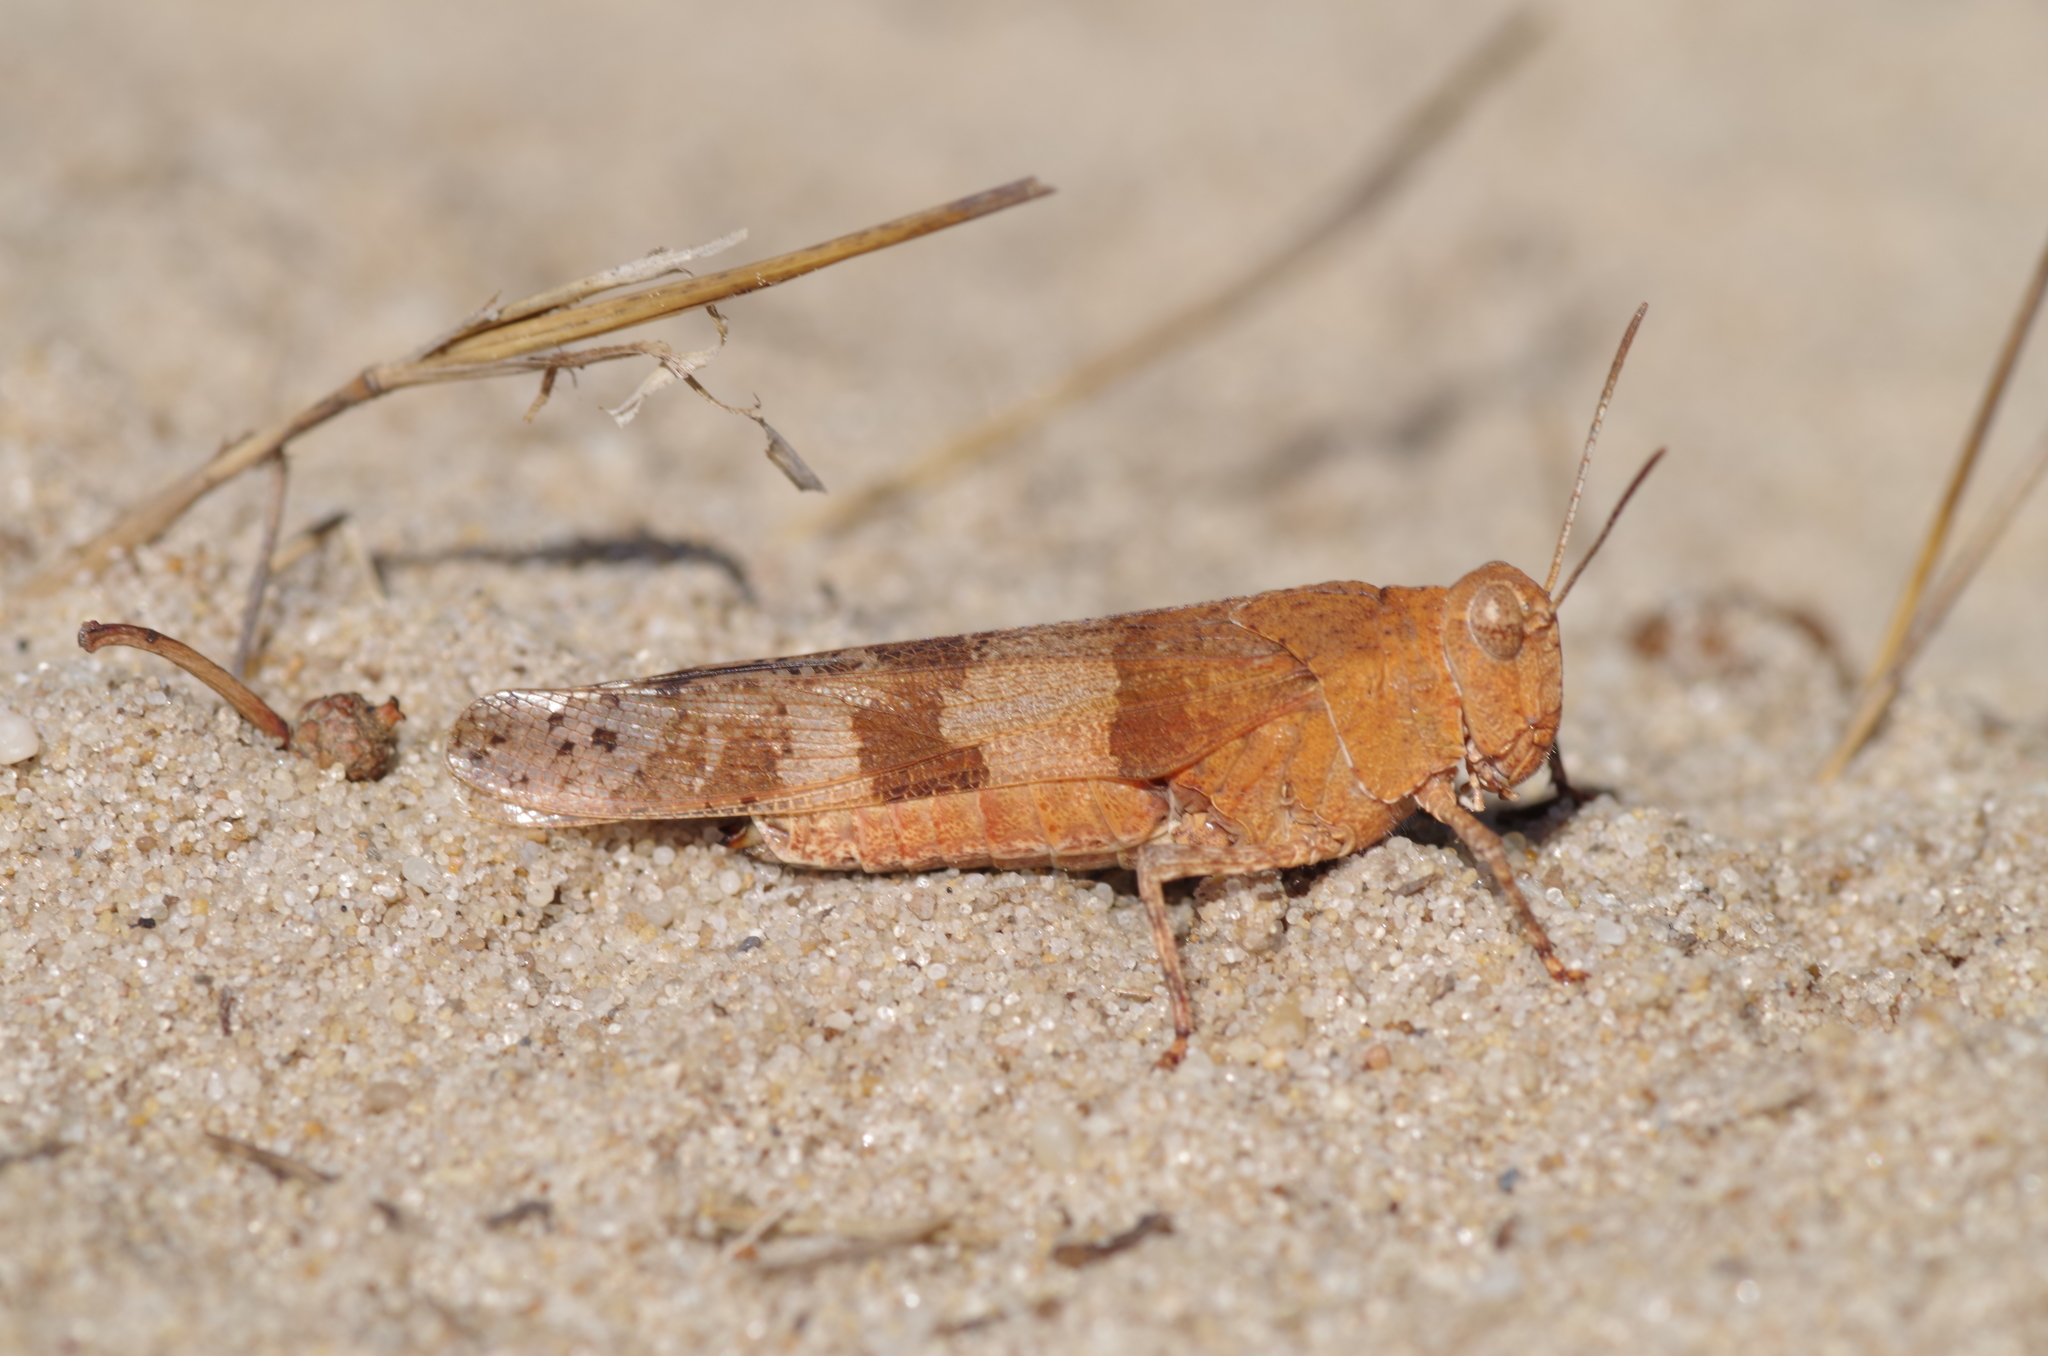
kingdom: Animalia
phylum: Arthropoda
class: Insecta
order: Orthoptera
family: Acrididae
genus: Oedipoda
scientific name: Oedipoda caerulescens
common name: Blue-winged grasshopper
